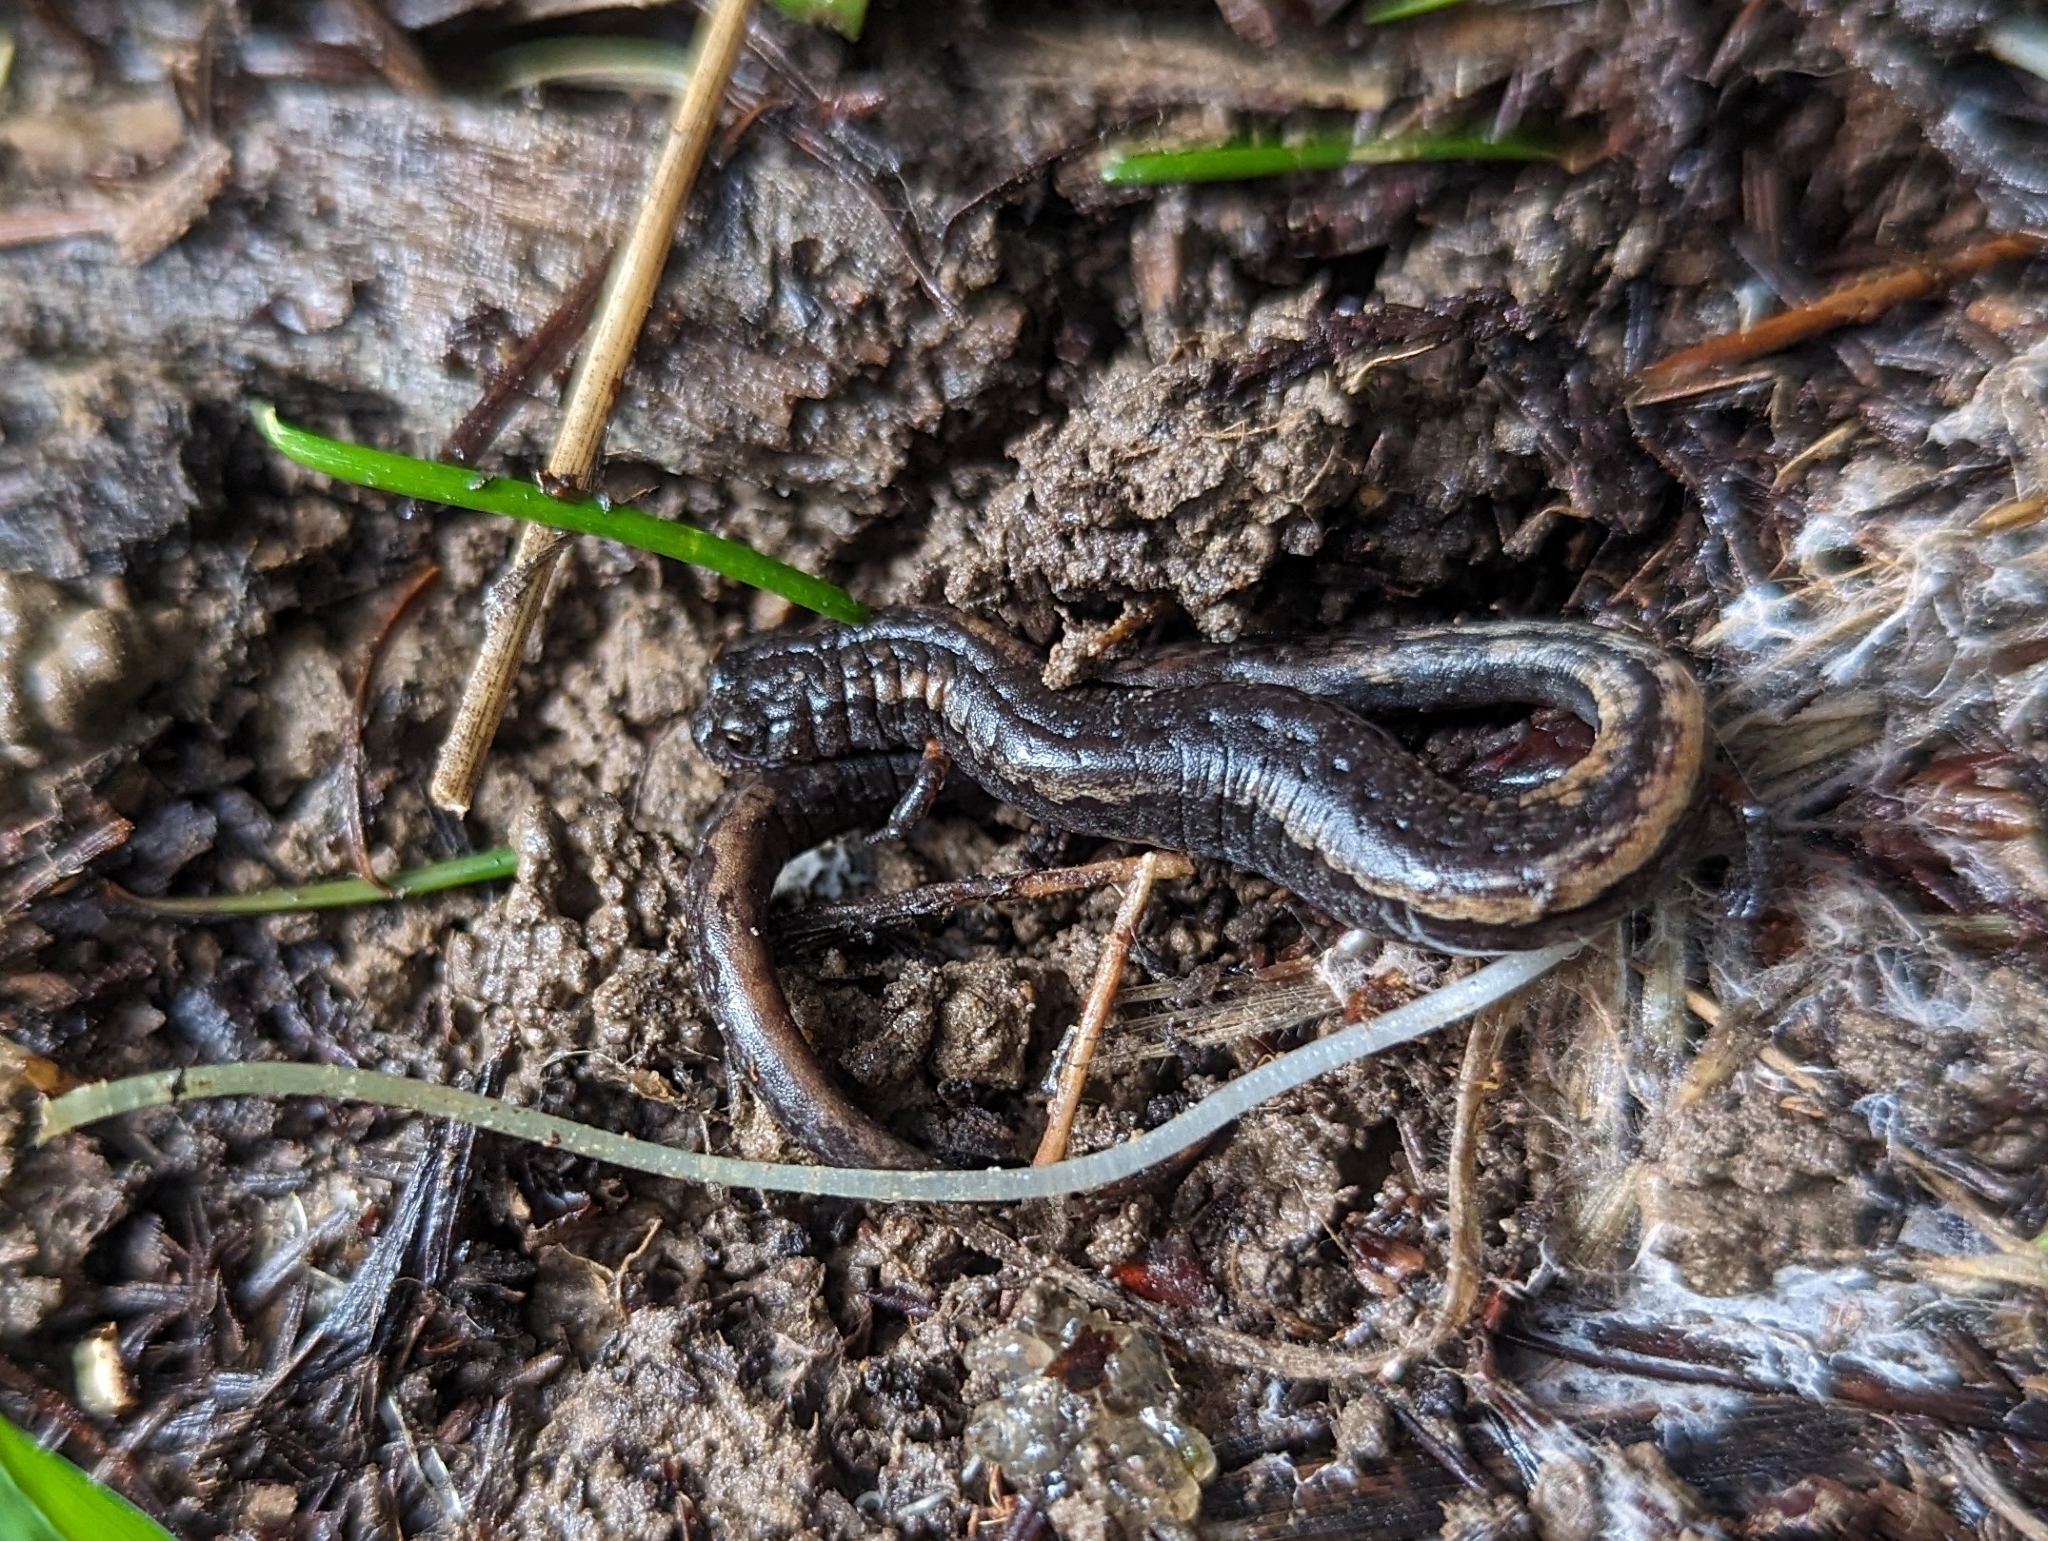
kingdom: Animalia
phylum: Chordata
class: Amphibia
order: Caudata
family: Plethodontidae
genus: Batrachoseps
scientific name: Batrachoseps attenuatus
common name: California slender salamander
